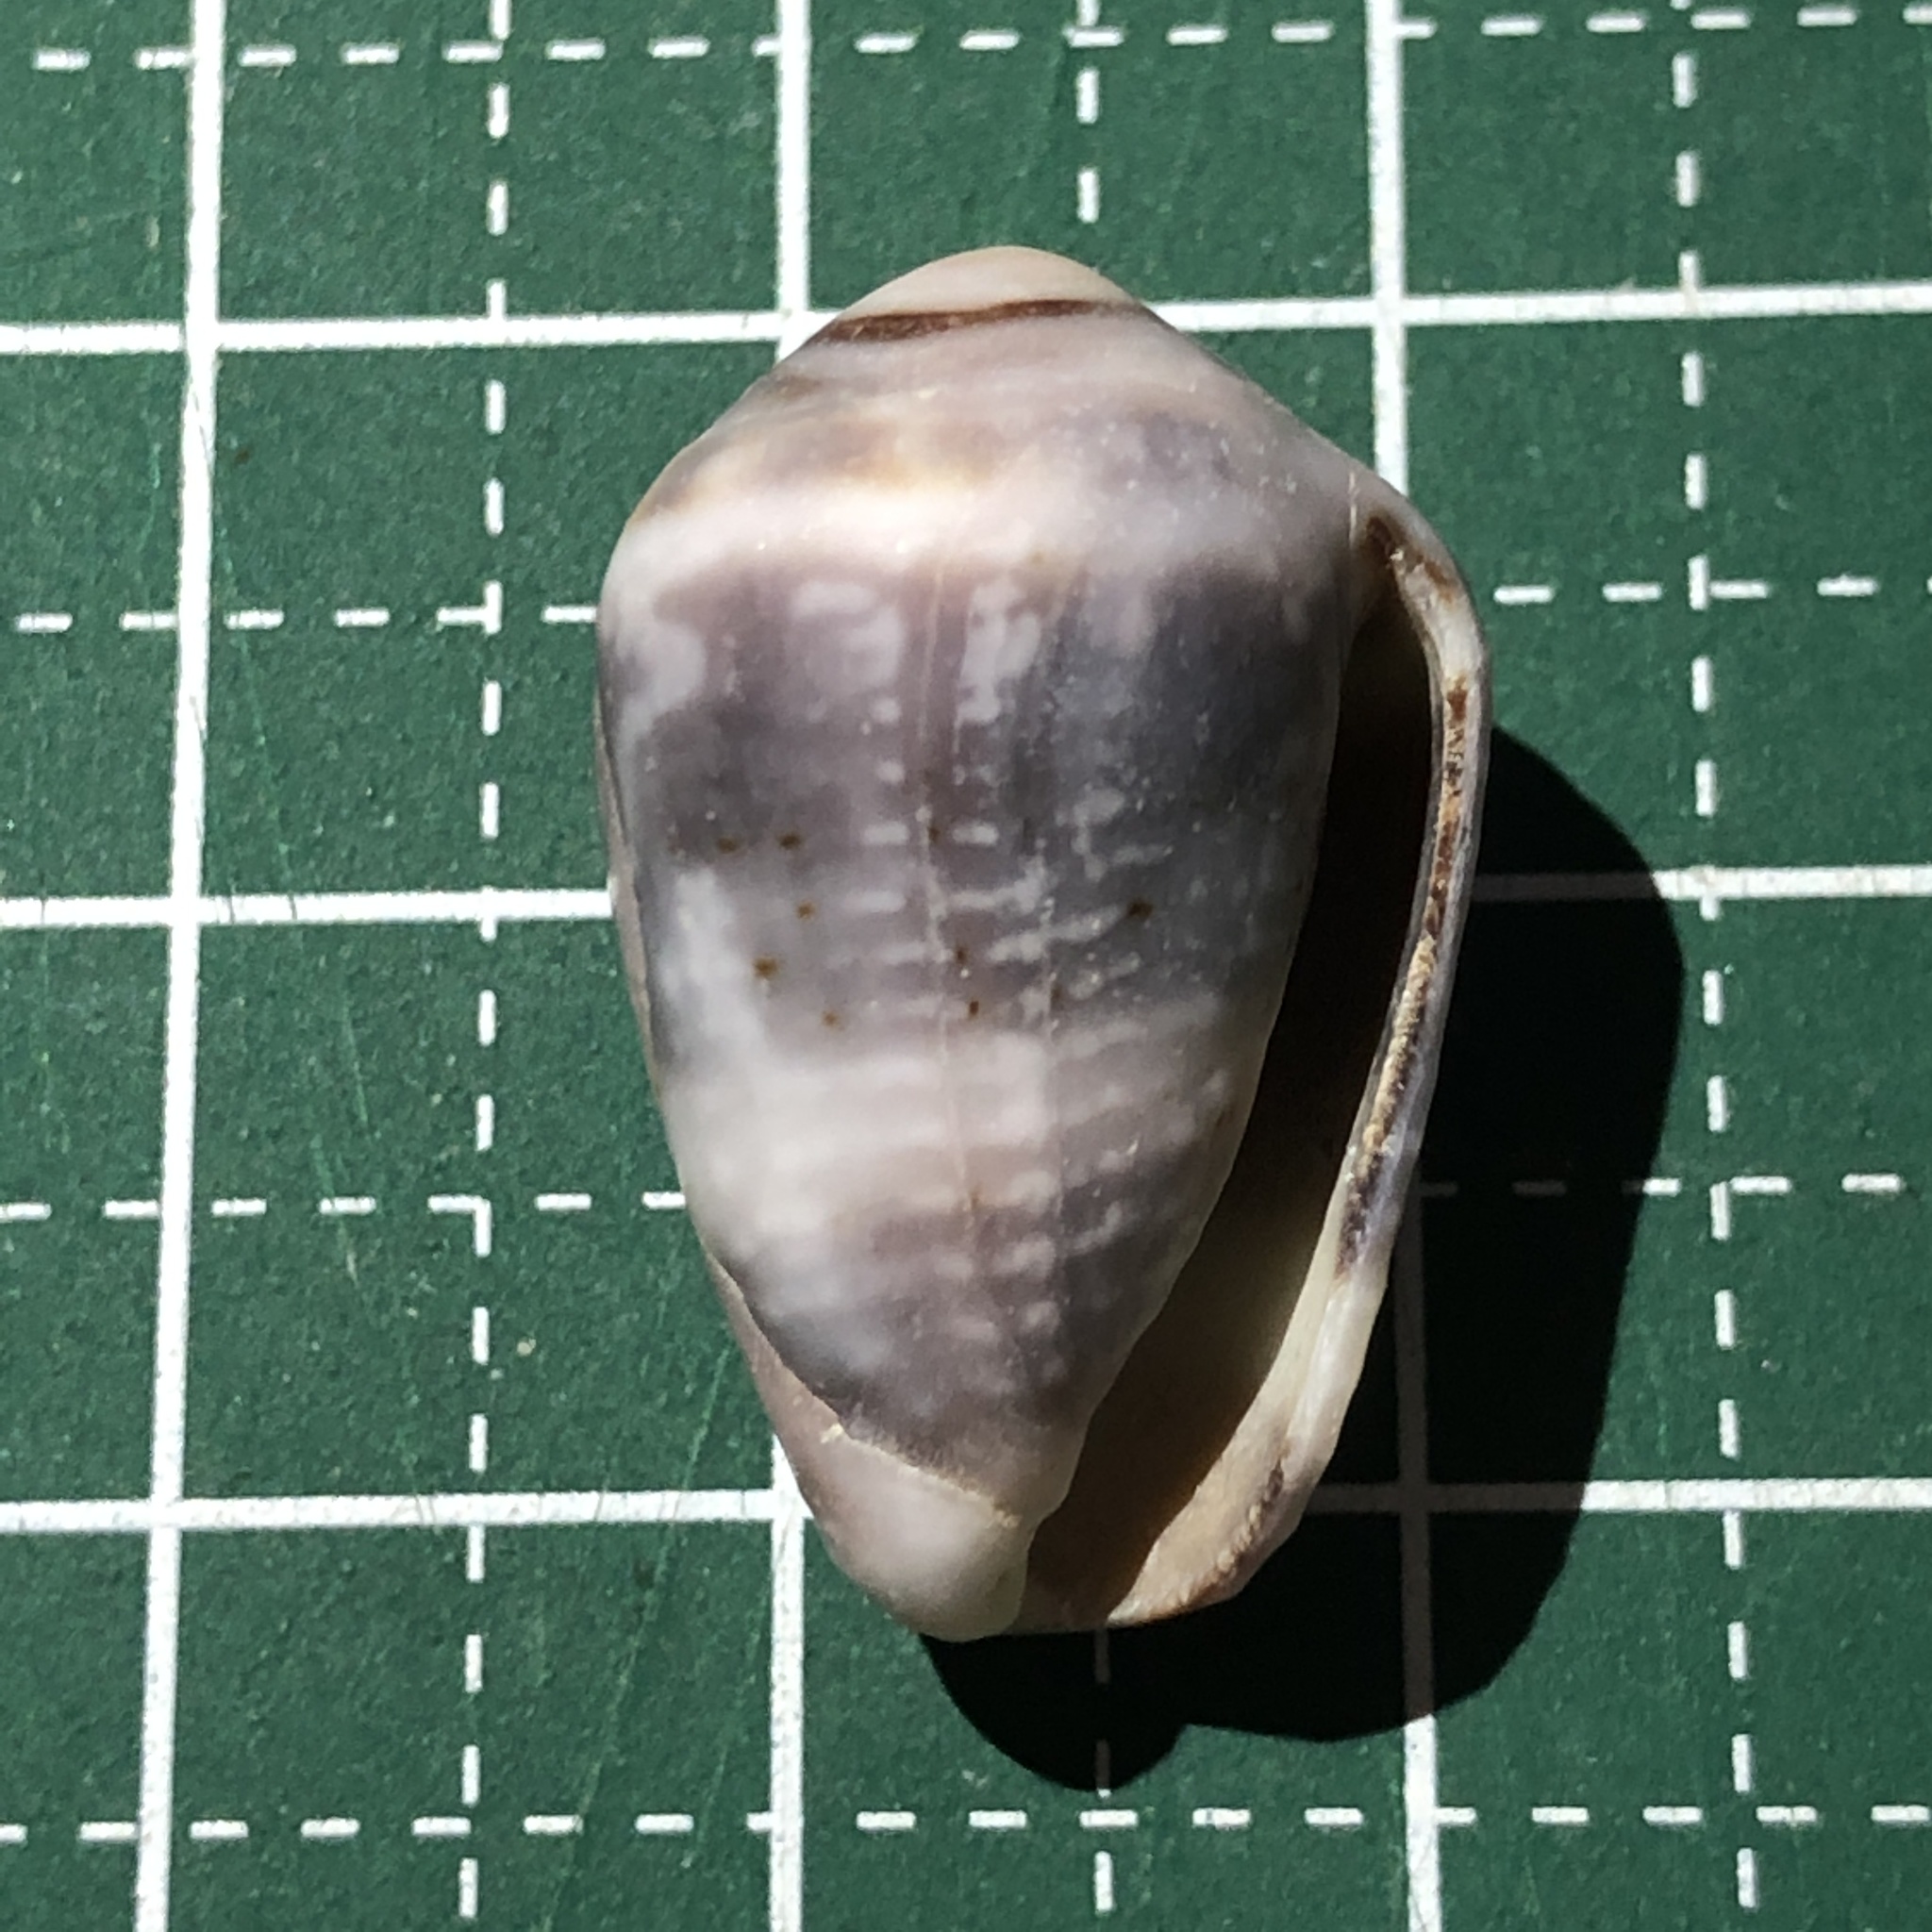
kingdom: Animalia
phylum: Mollusca
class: Gastropoda
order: Neogastropoda
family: Conidae
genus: Conus
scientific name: Conus coronatus
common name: Coronated cone
